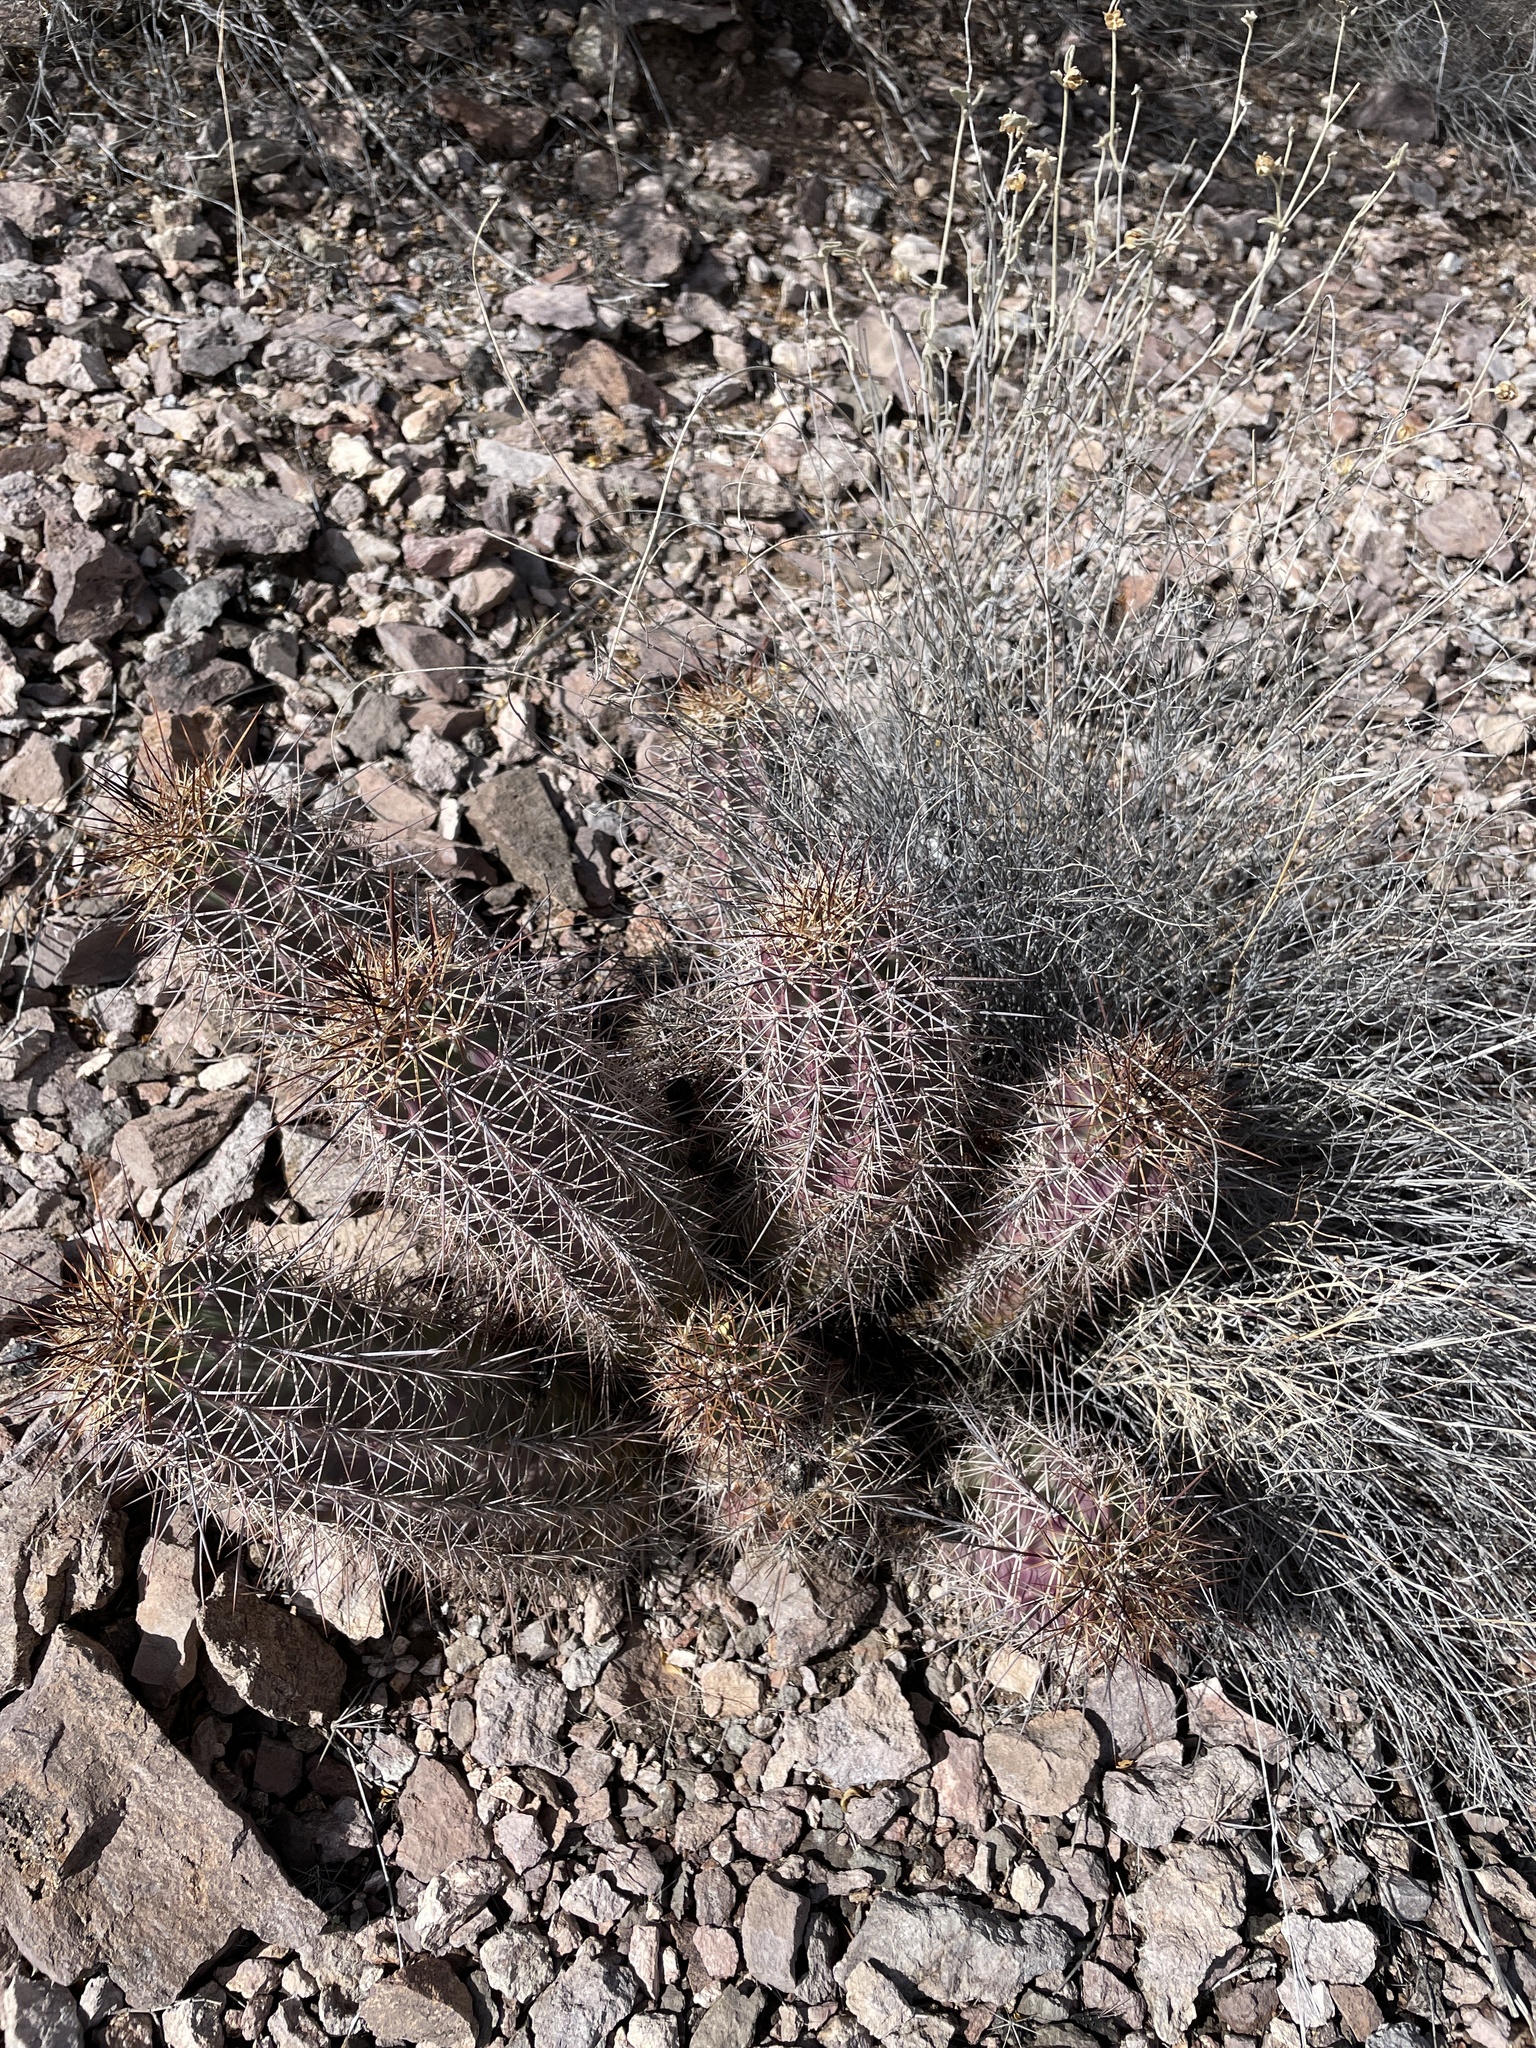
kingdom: Plantae
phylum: Tracheophyta
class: Magnoliopsida
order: Caryophyllales
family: Cactaceae
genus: Echinocereus
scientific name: Echinocereus coccineus
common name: Scarlet hedgehog cactus
